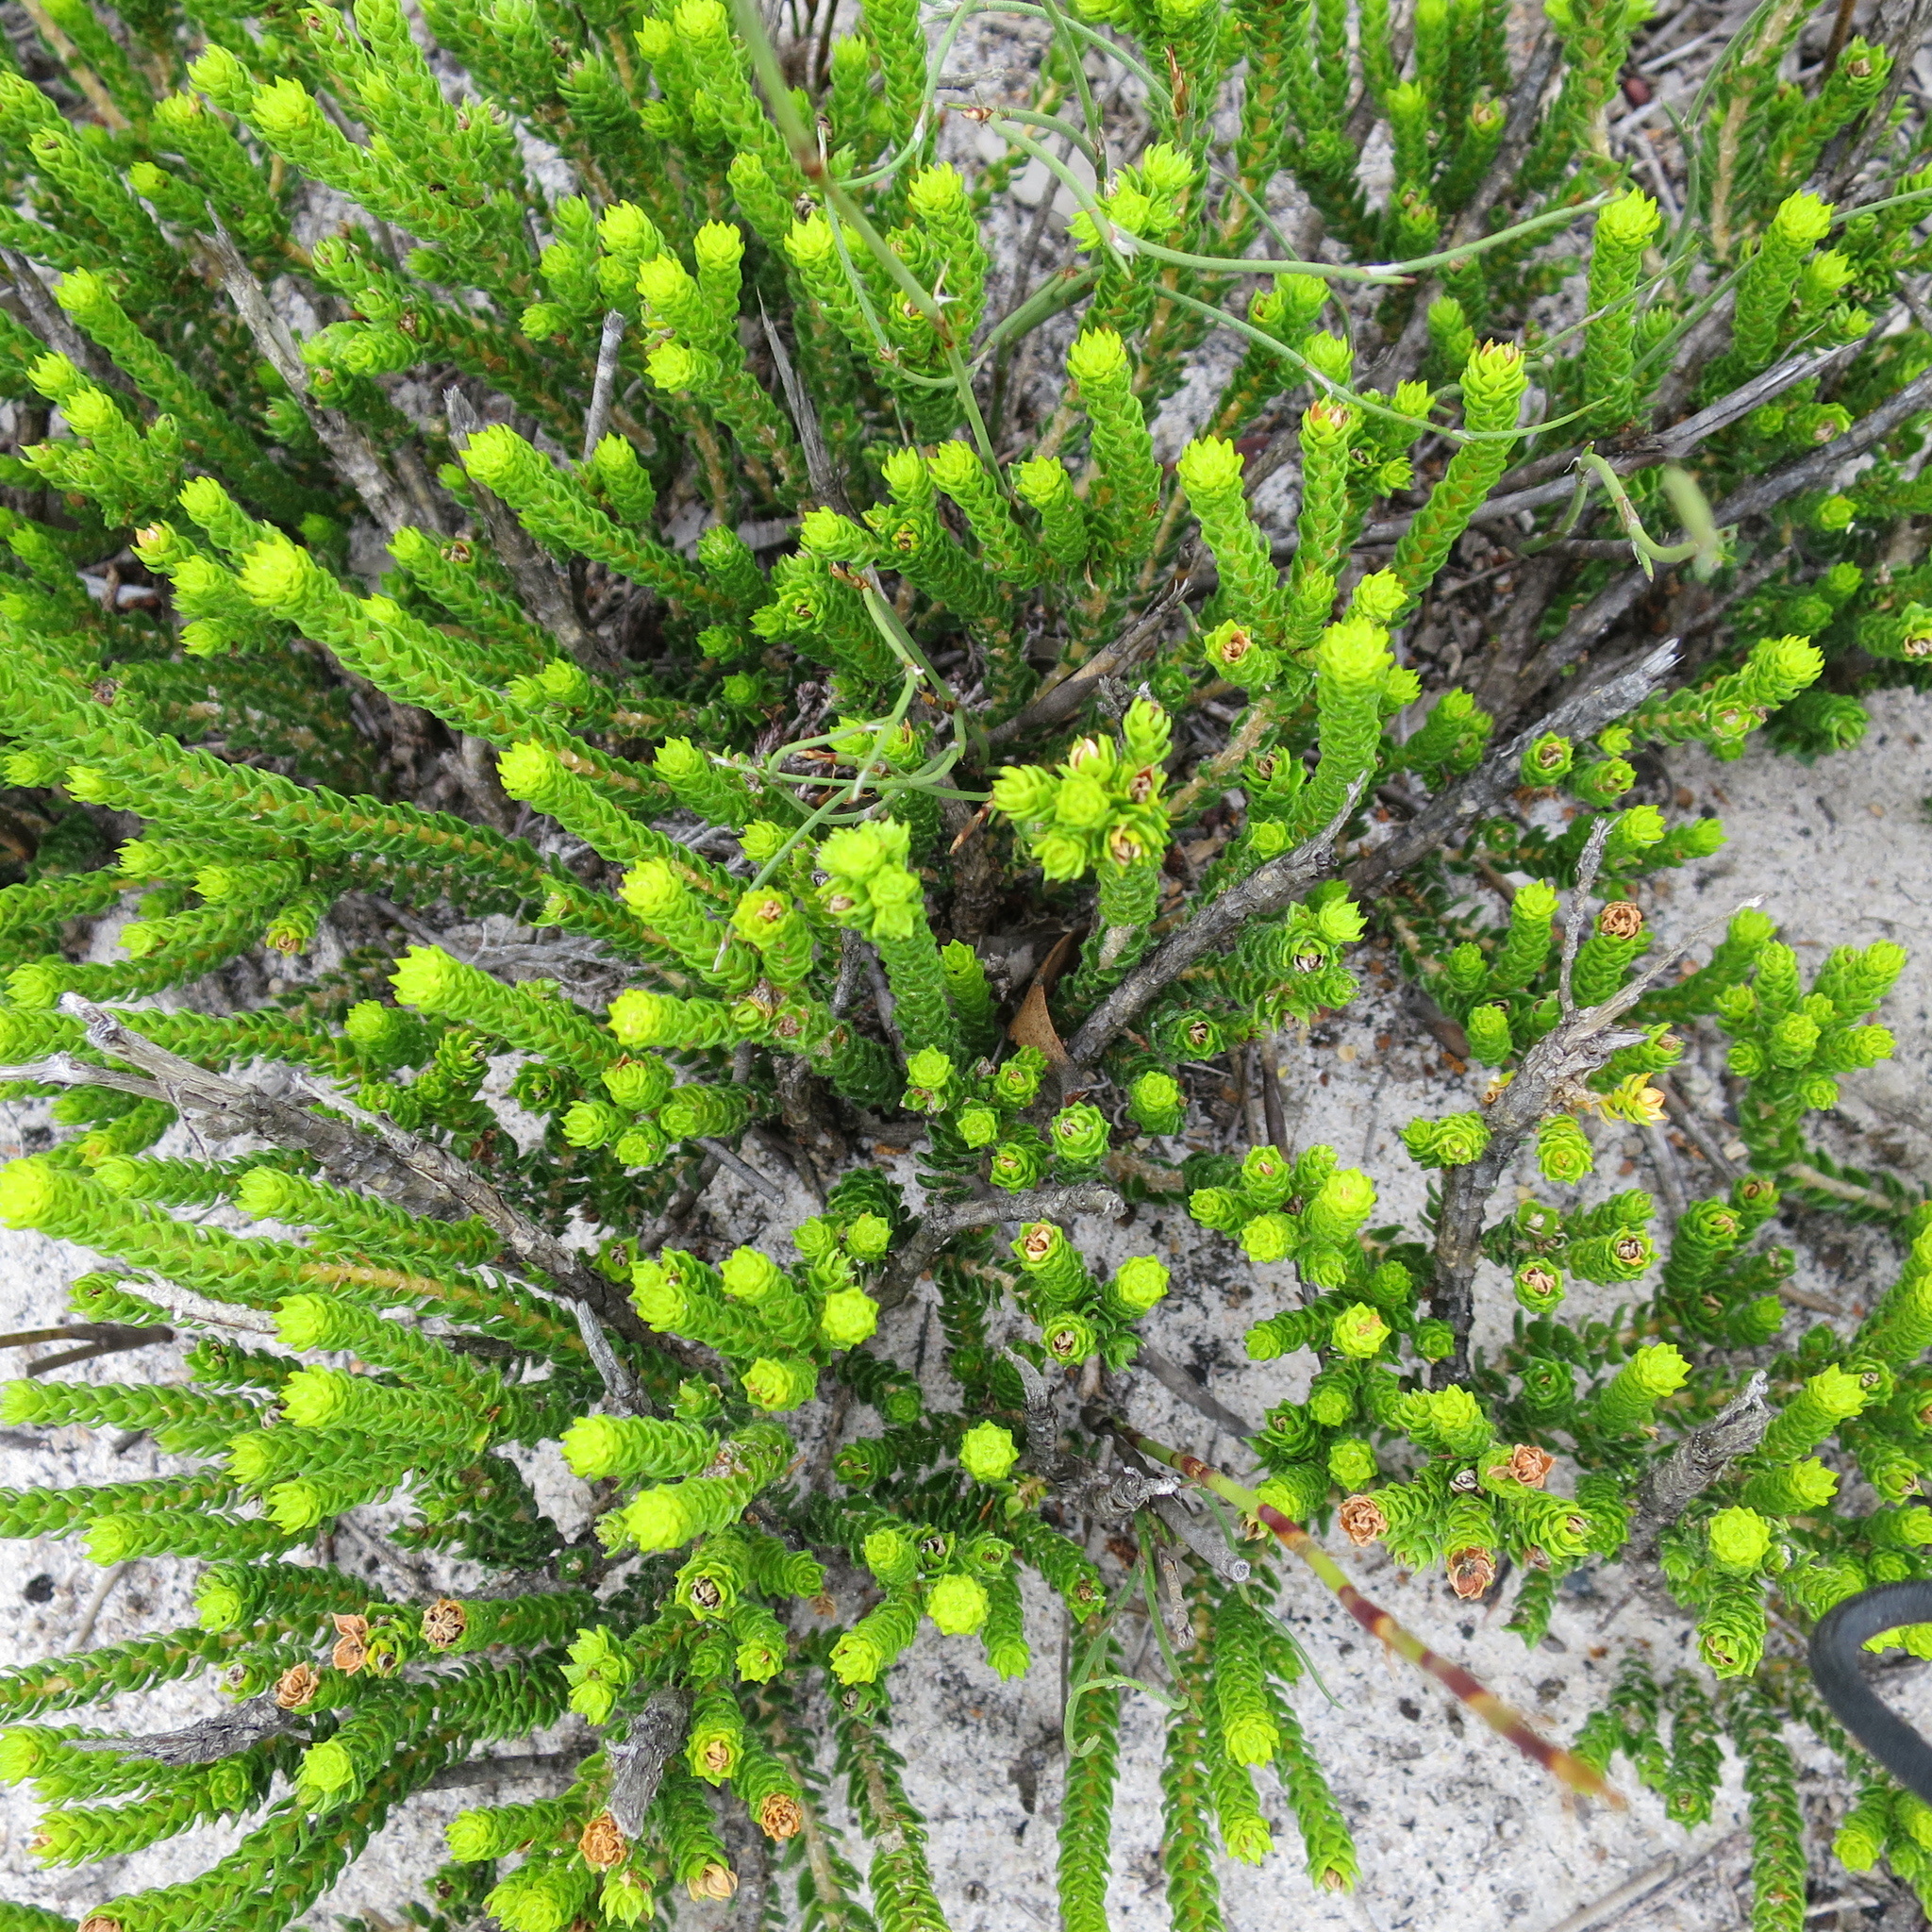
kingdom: Plantae
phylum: Tracheophyta
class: Magnoliopsida
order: Sapindales
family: Rutaceae
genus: Agathosma
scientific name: Agathosma eriantha
